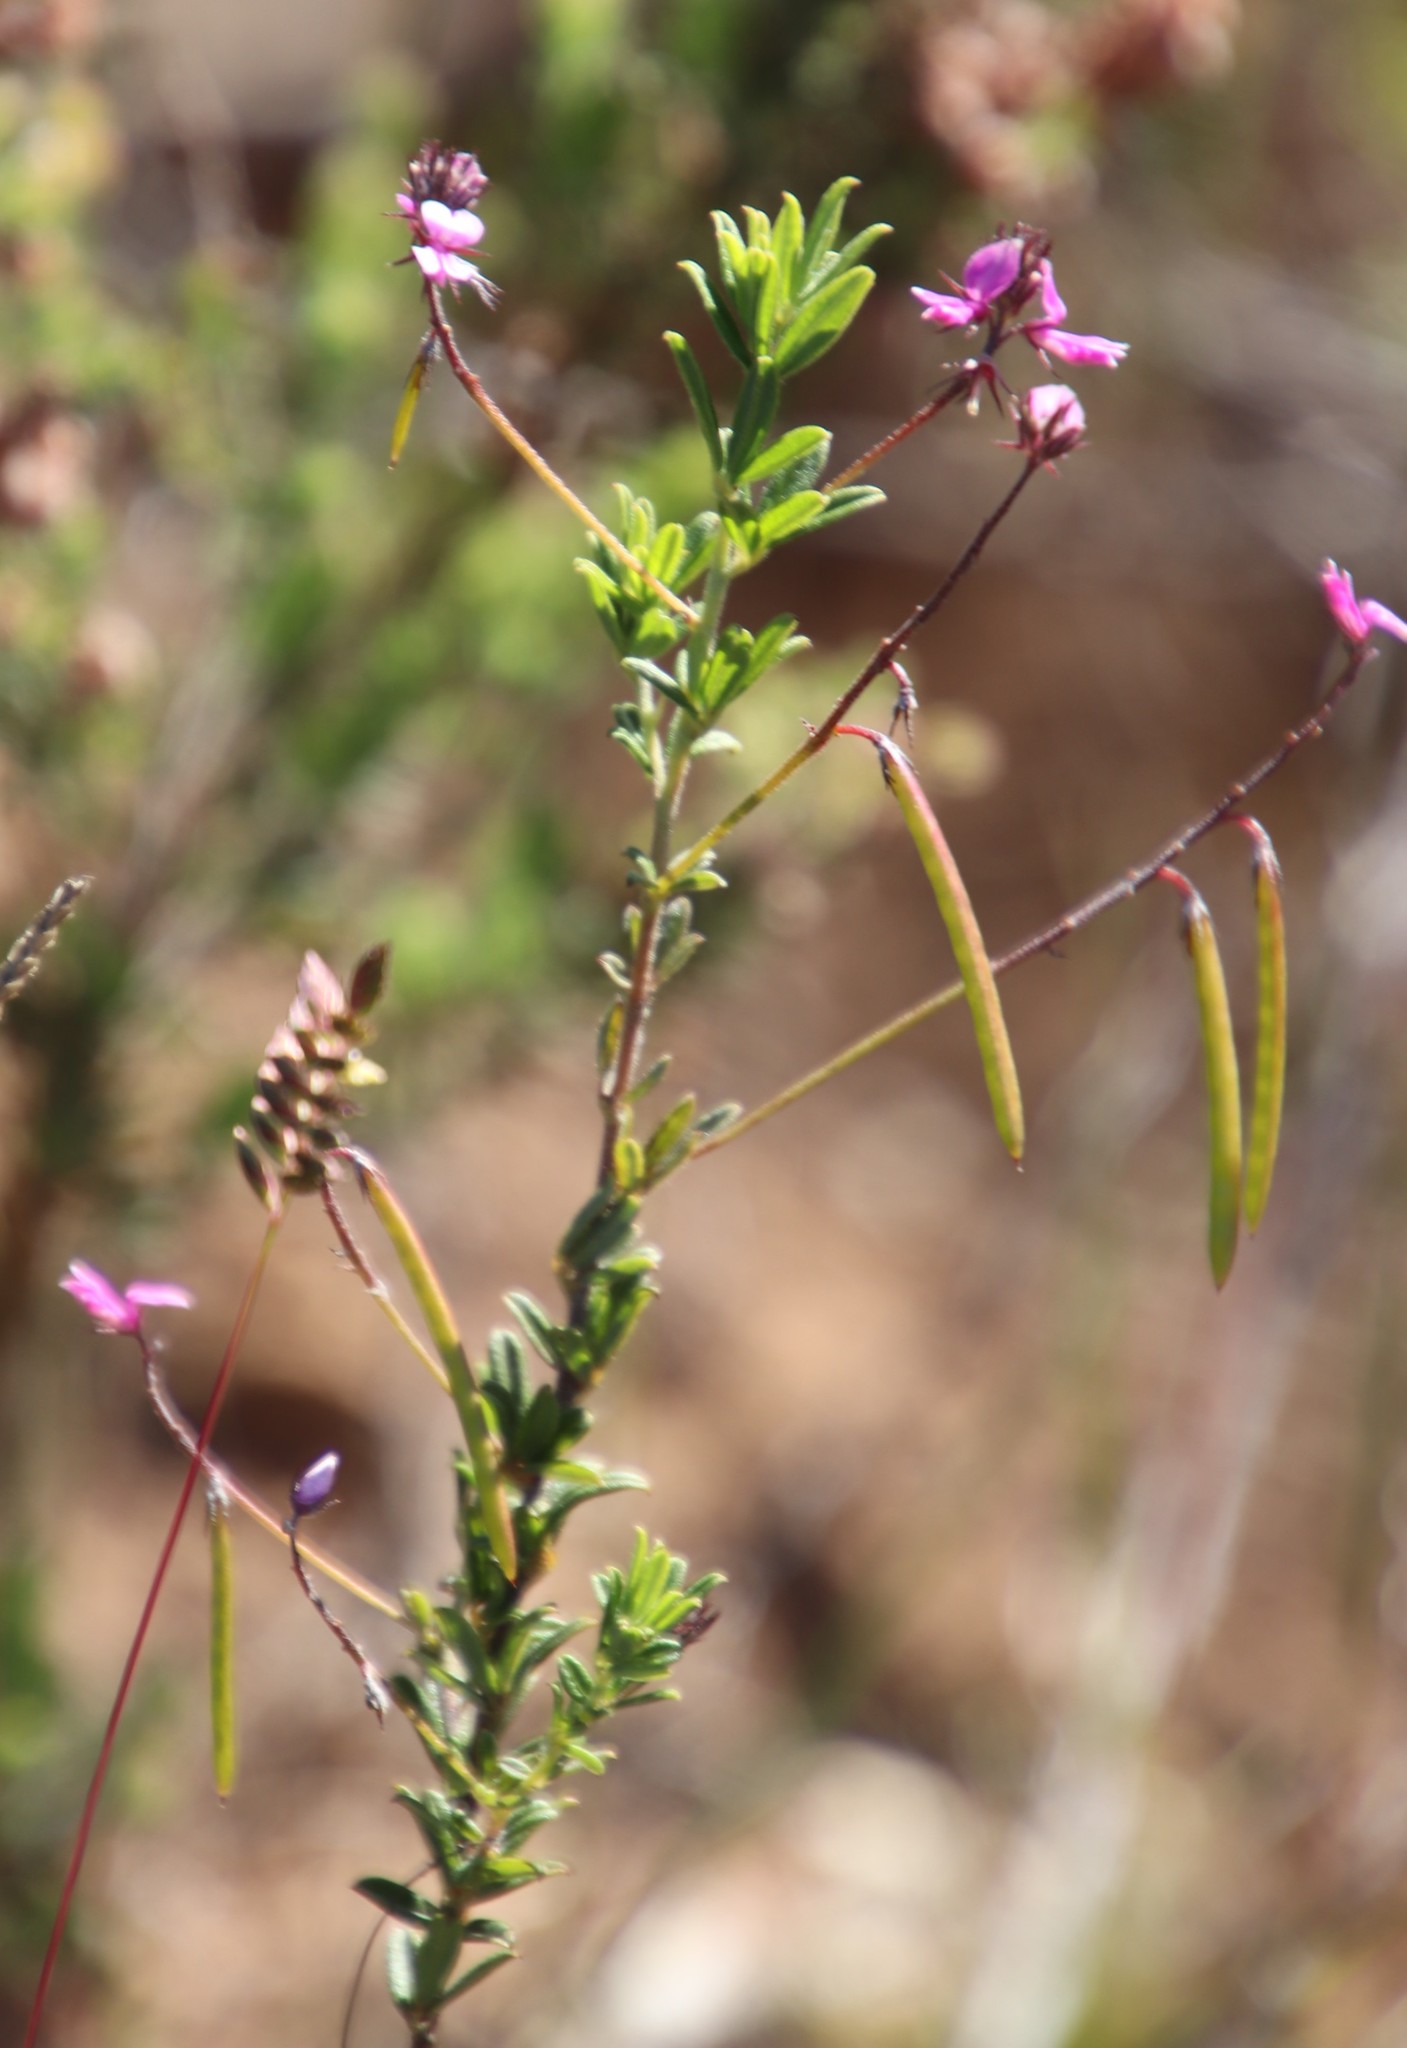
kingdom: Plantae
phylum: Tracheophyta
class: Magnoliopsida
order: Fabales
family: Fabaceae
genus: Indigofera
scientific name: Indigofera filiformis
